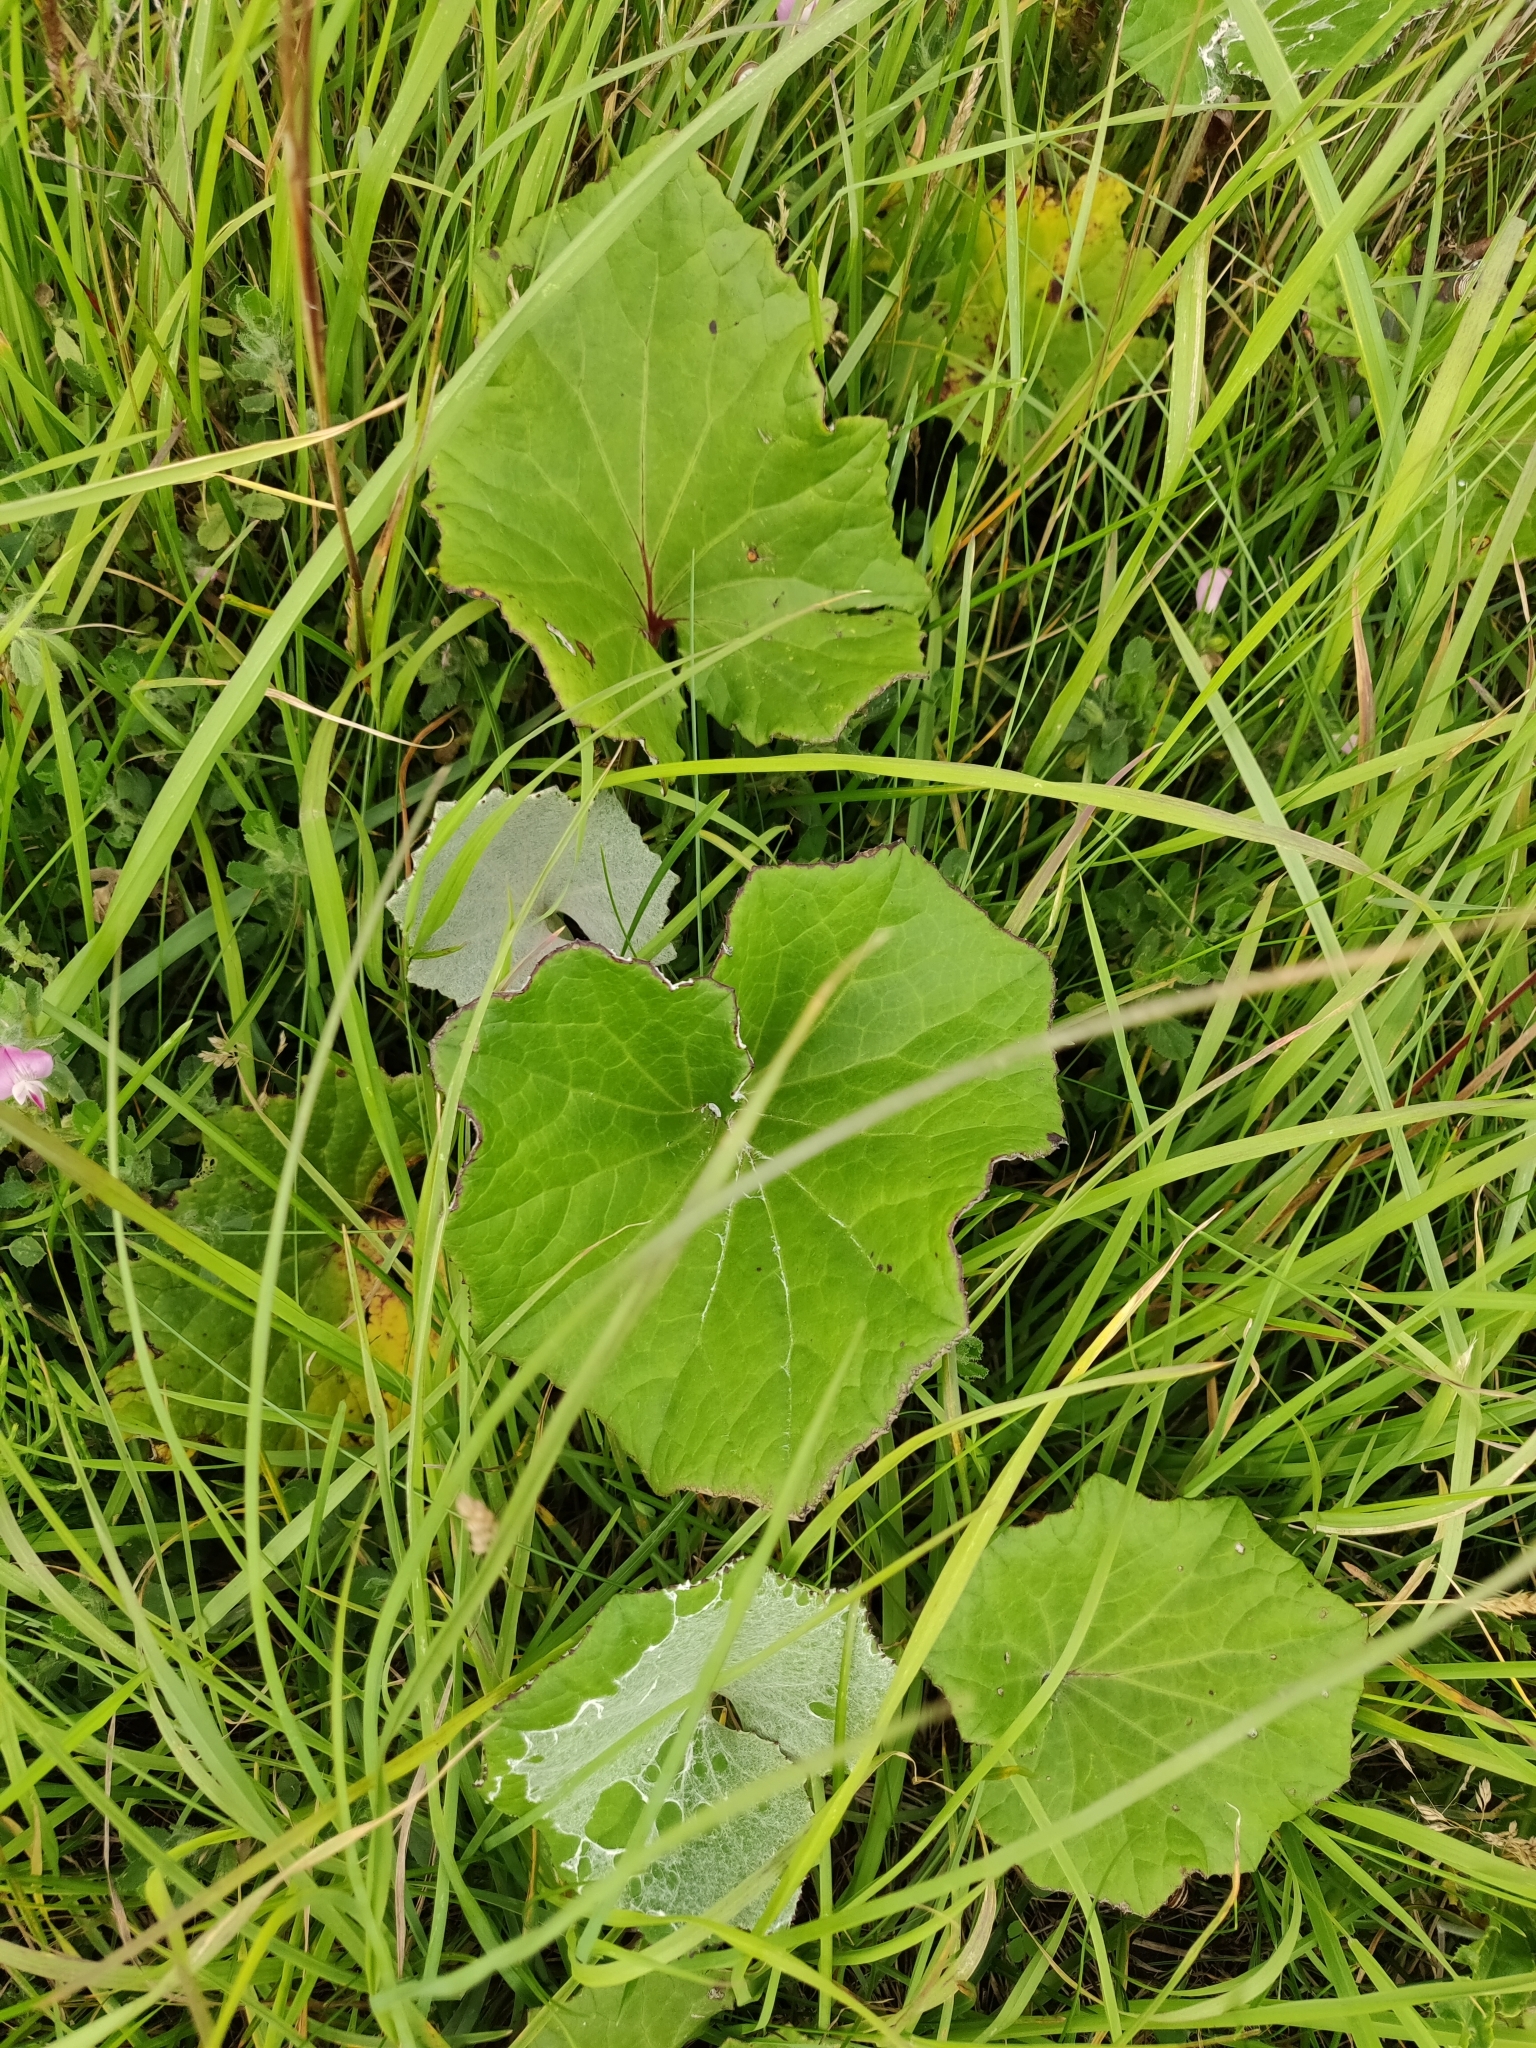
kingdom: Plantae
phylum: Tracheophyta
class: Magnoliopsida
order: Asterales
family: Asteraceae
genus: Tussilago
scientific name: Tussilago farfara
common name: Coltsfoot
